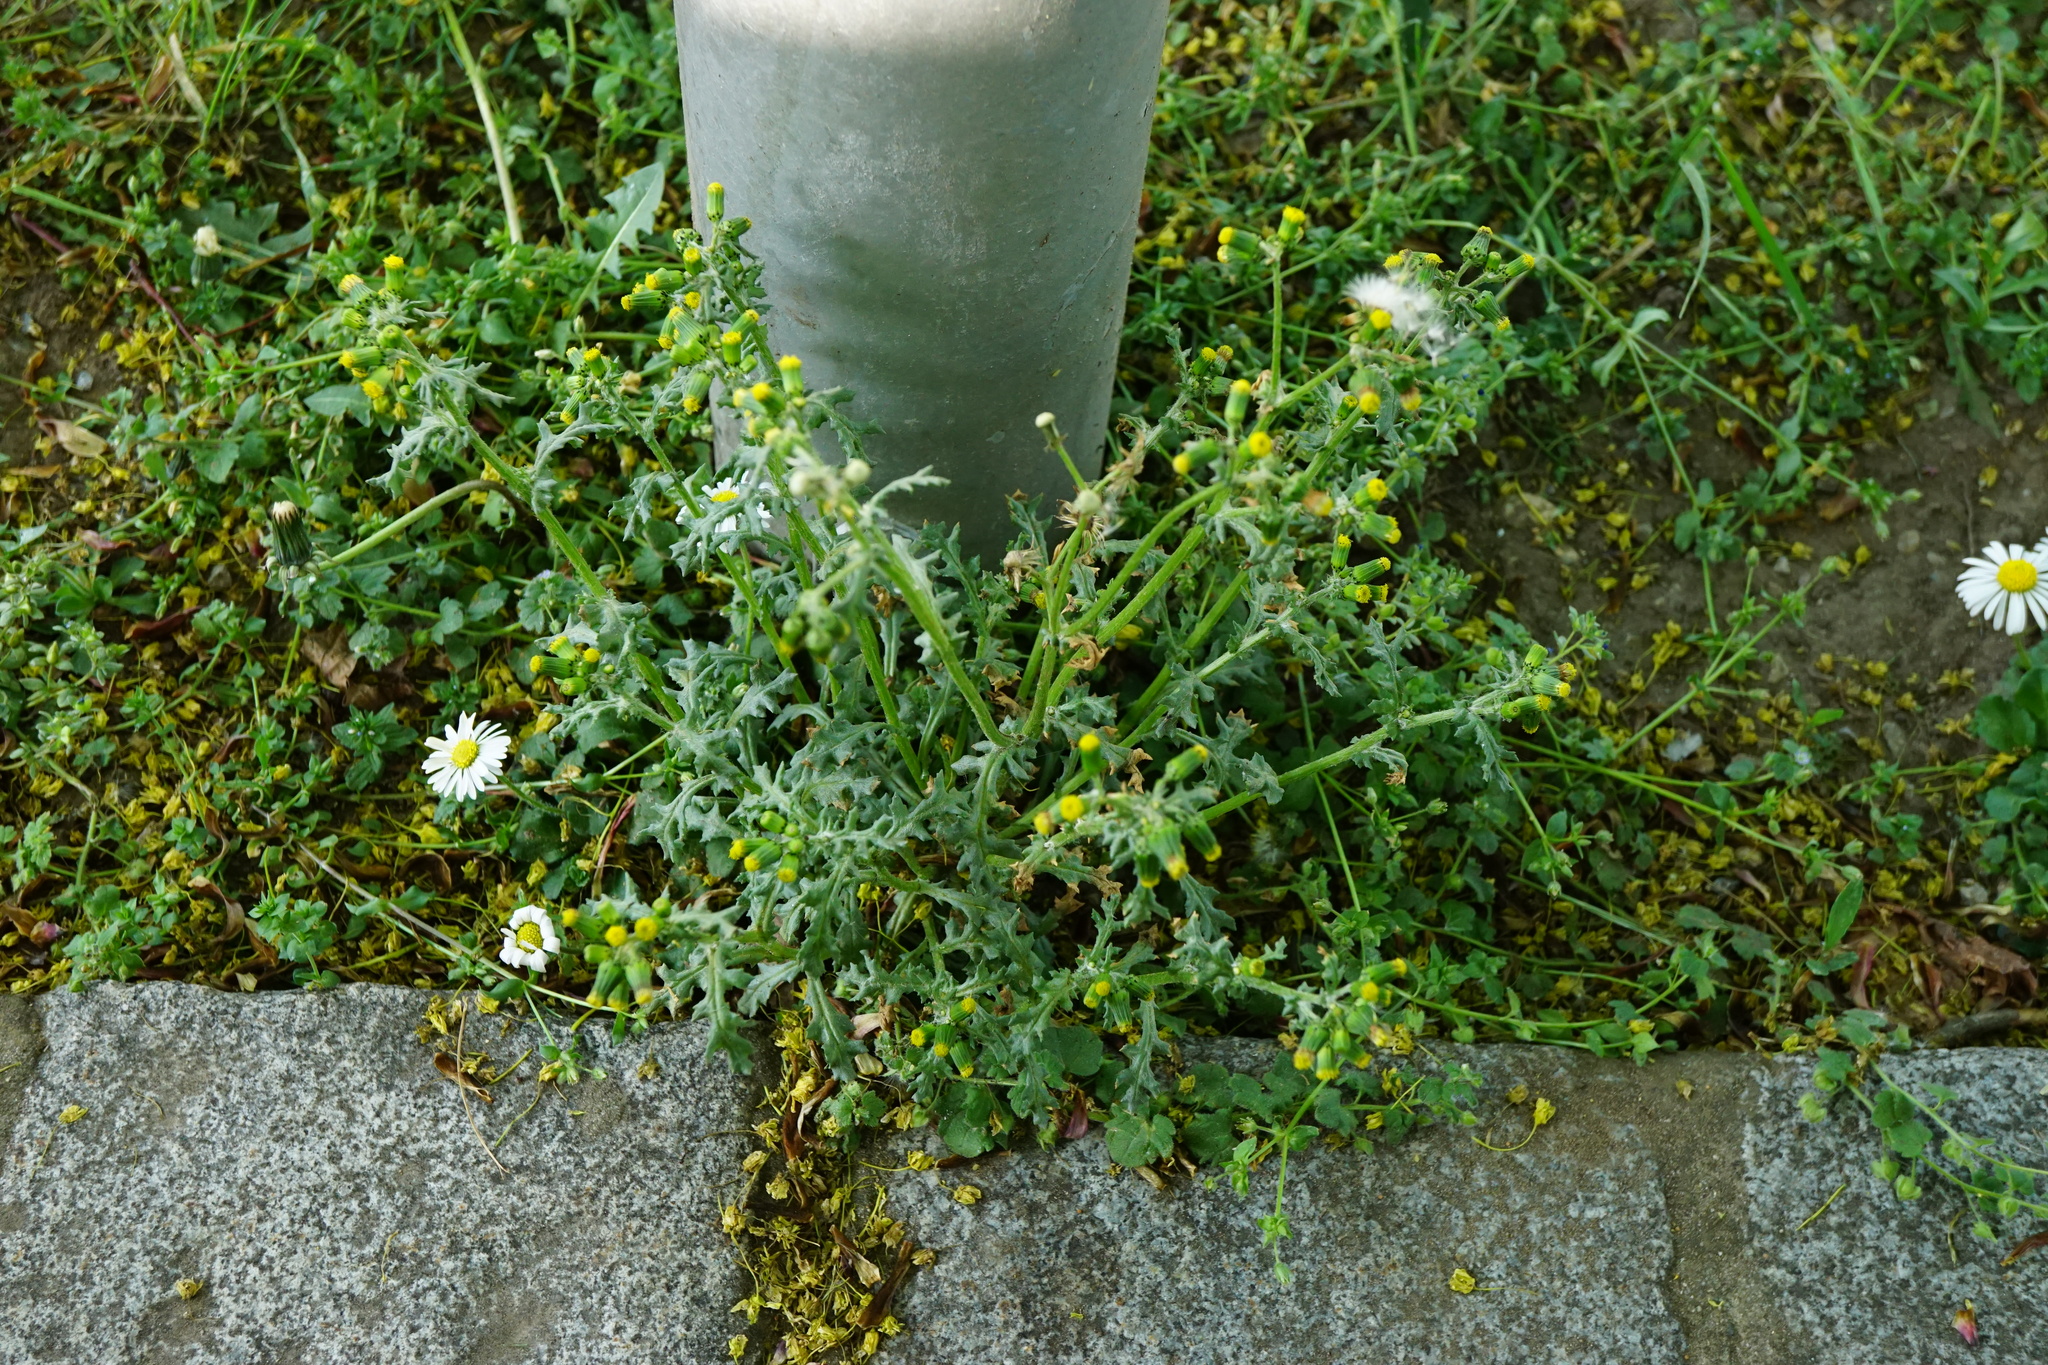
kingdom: Plantae
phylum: Tracheophyta
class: Magnoliopsida
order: Asterales
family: Asteraceae
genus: Senecio
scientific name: Senecio vulgaris
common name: Old-man-in-the-spring
